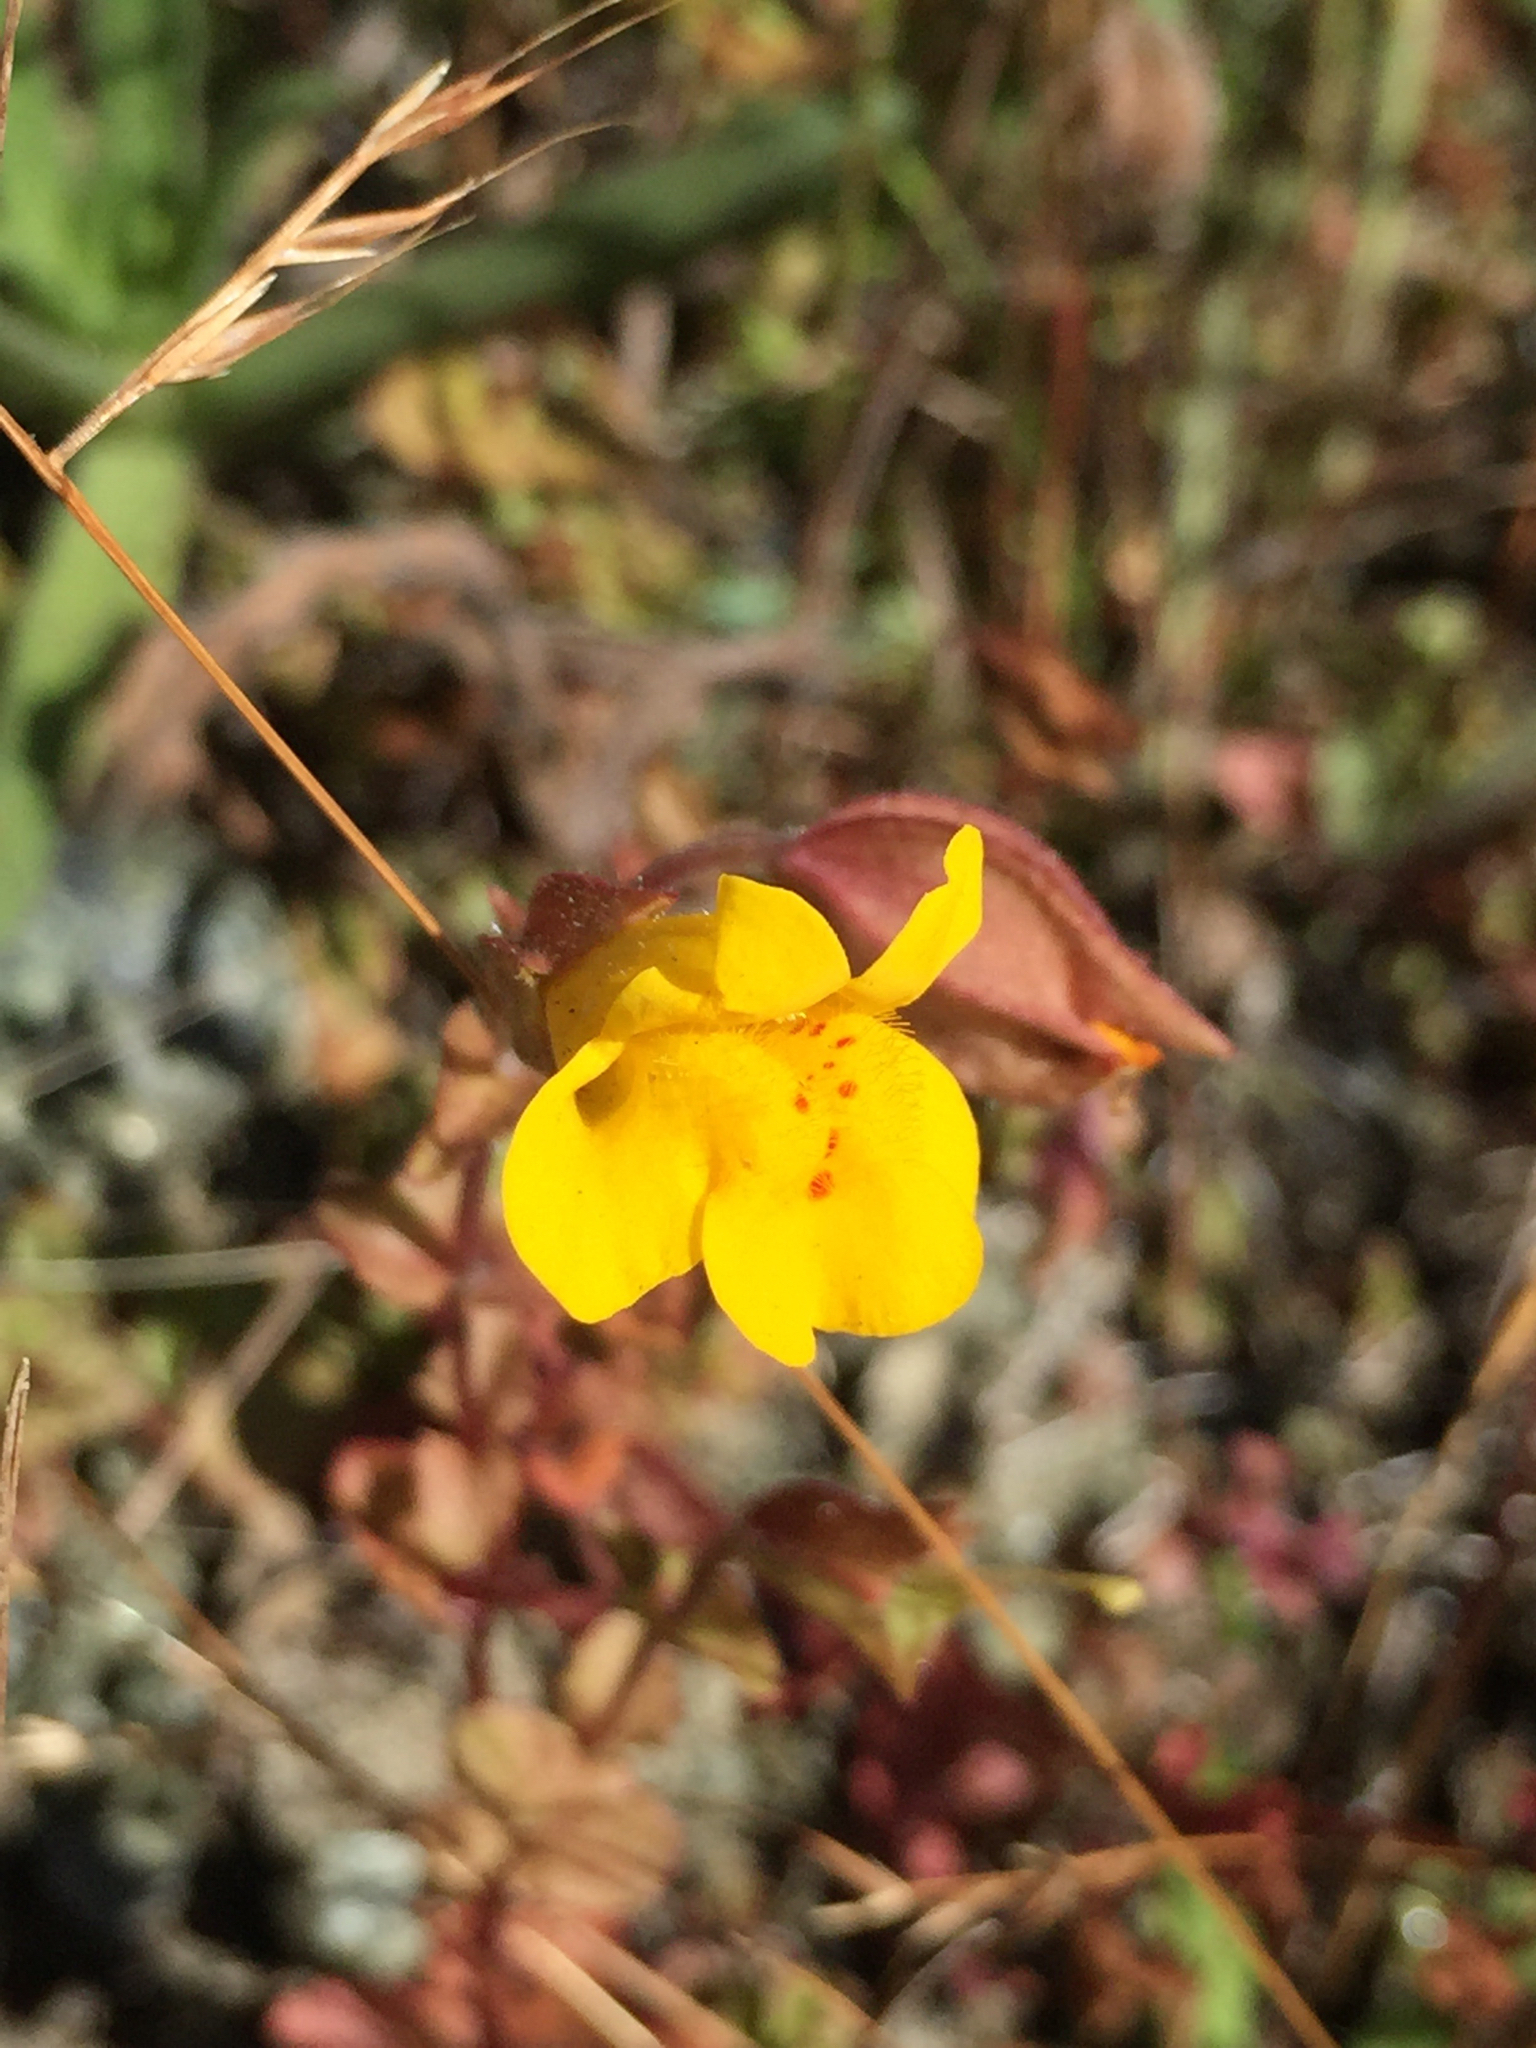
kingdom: Plantae
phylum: Tracheophyta
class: Magnoliopsida
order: Lamiales
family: Phrymaceae
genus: Erythranthe
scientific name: Erythranthe guttata
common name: Monkeyflower
